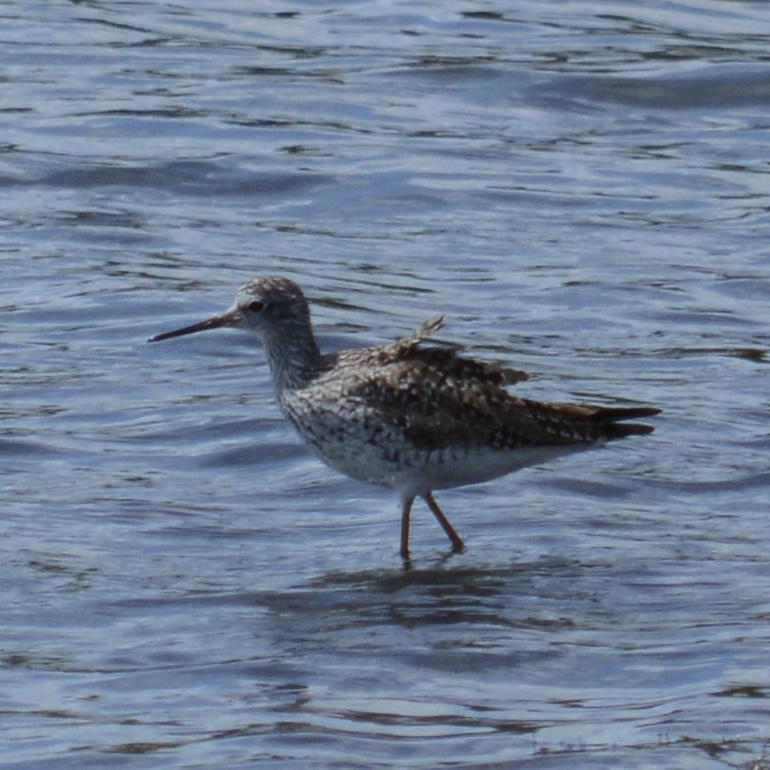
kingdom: Animalia
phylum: Chordata
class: Aves
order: Charadriiformes
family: Scolopacidae
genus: Tringa
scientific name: Tringa melanoleuca
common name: Greater yellowlegs
